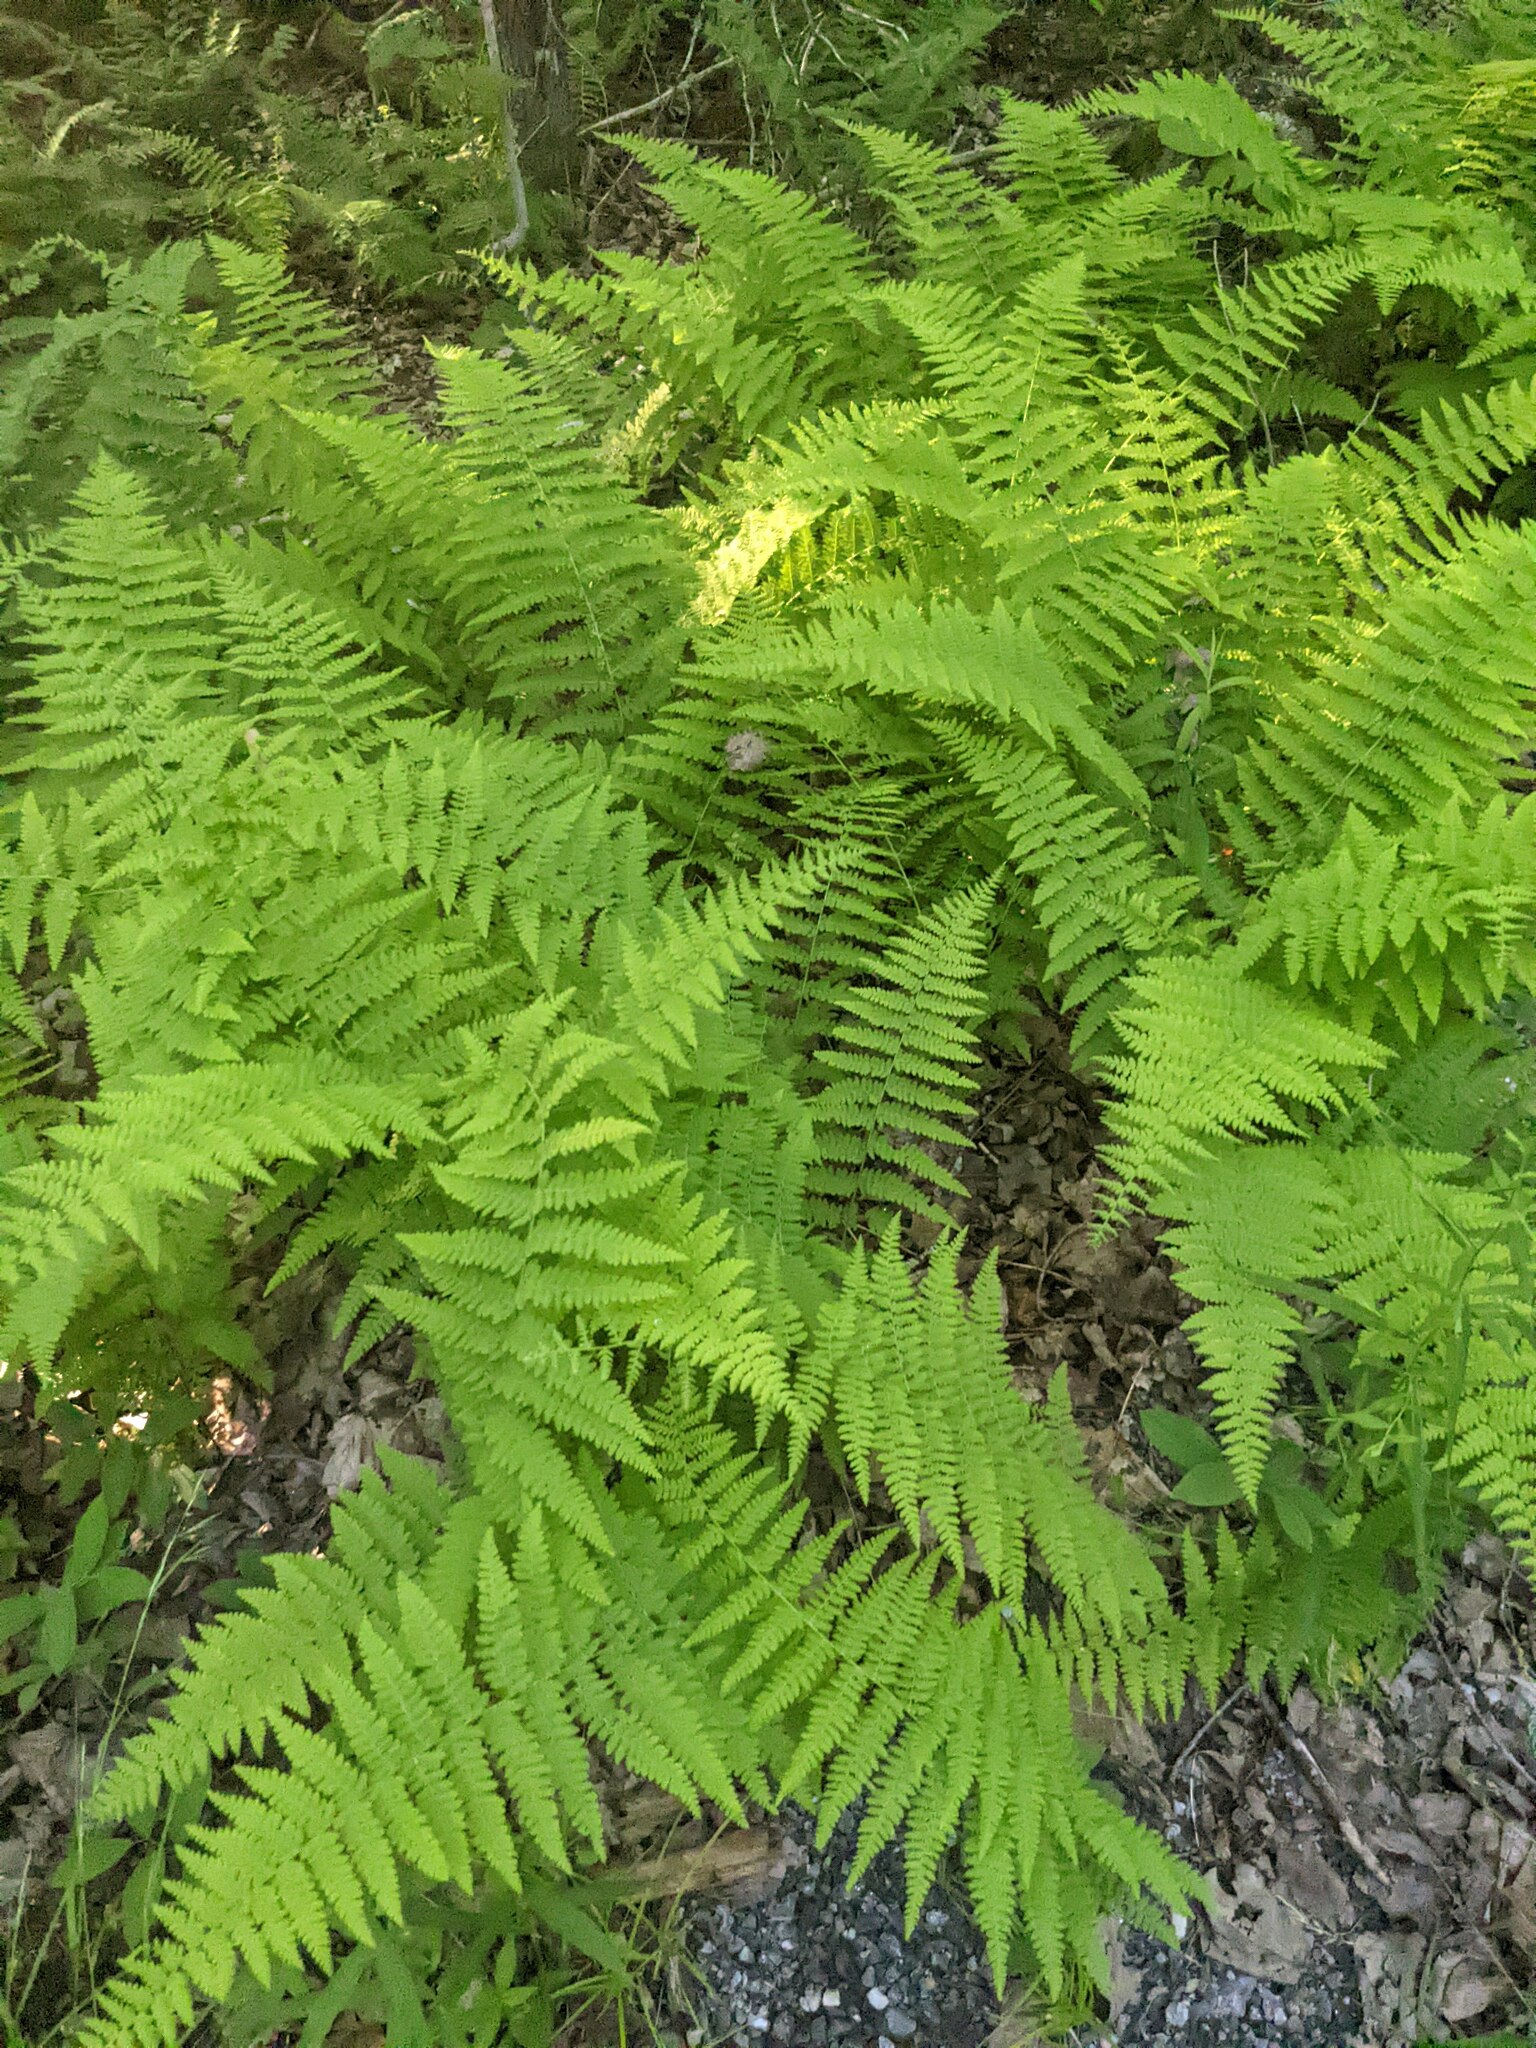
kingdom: Plantae
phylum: Tracheophyta
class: Polypodiopsida
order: Polypodiales
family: Dennstaedtiaceae
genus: Sitobolium
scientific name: Sitobolium punctilobum
